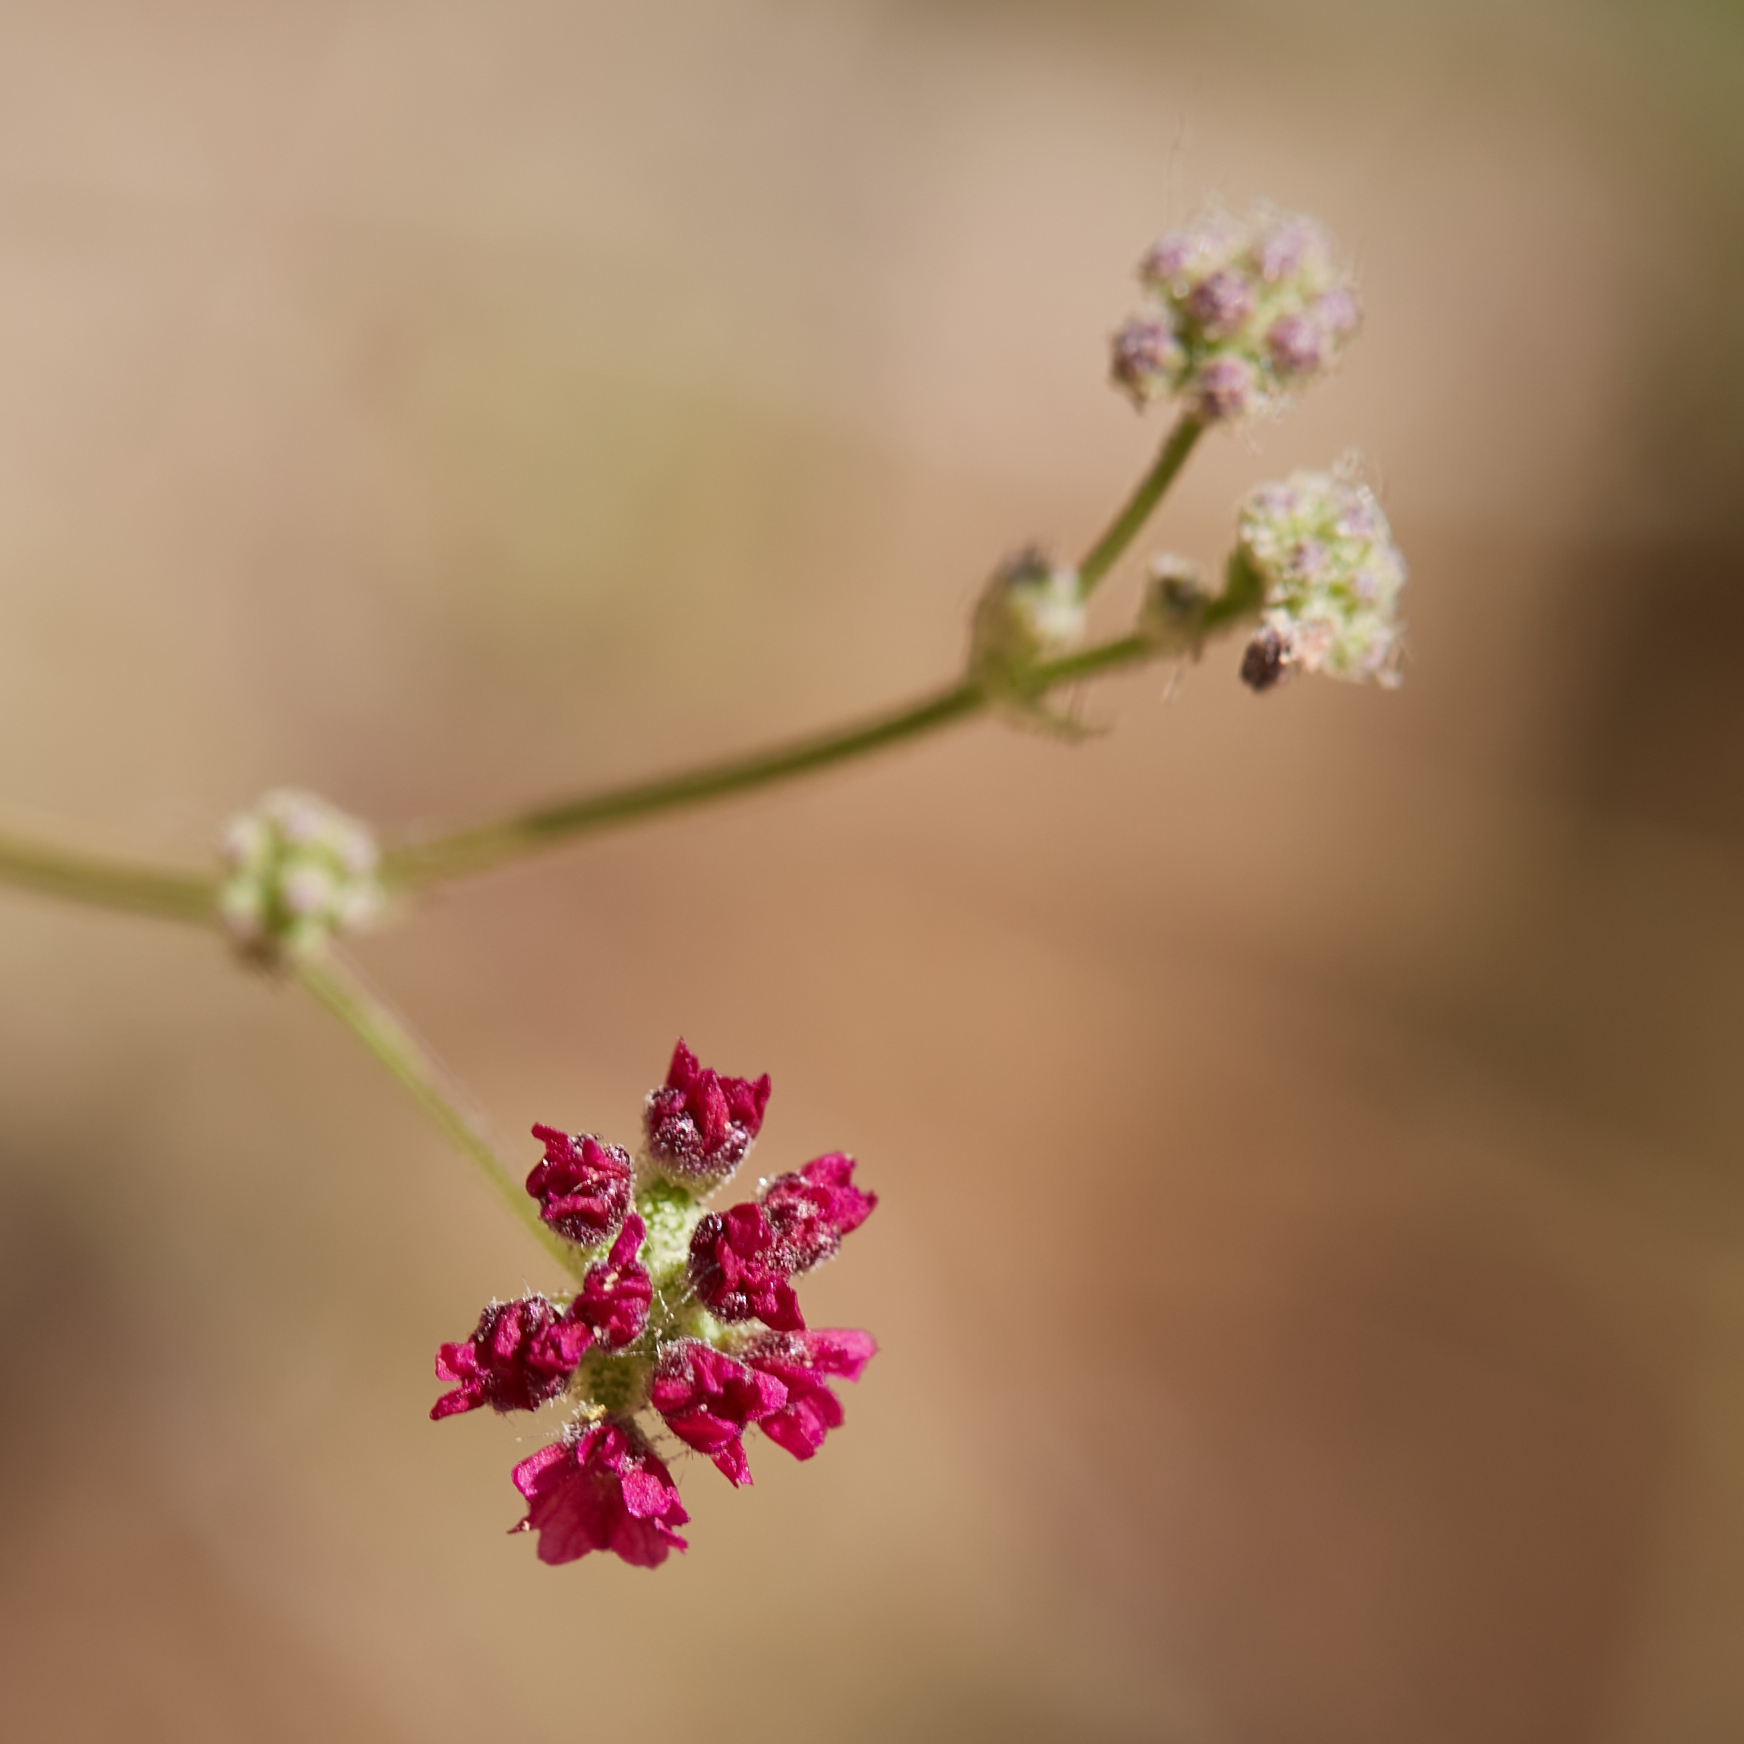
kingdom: Plantae
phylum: Tracheophyta
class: Magnoliopsida
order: Caryophyllales
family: Nyctaginaceae
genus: Boerhavia
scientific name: Boerhavia coccinea
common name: Scarlet spiderling
